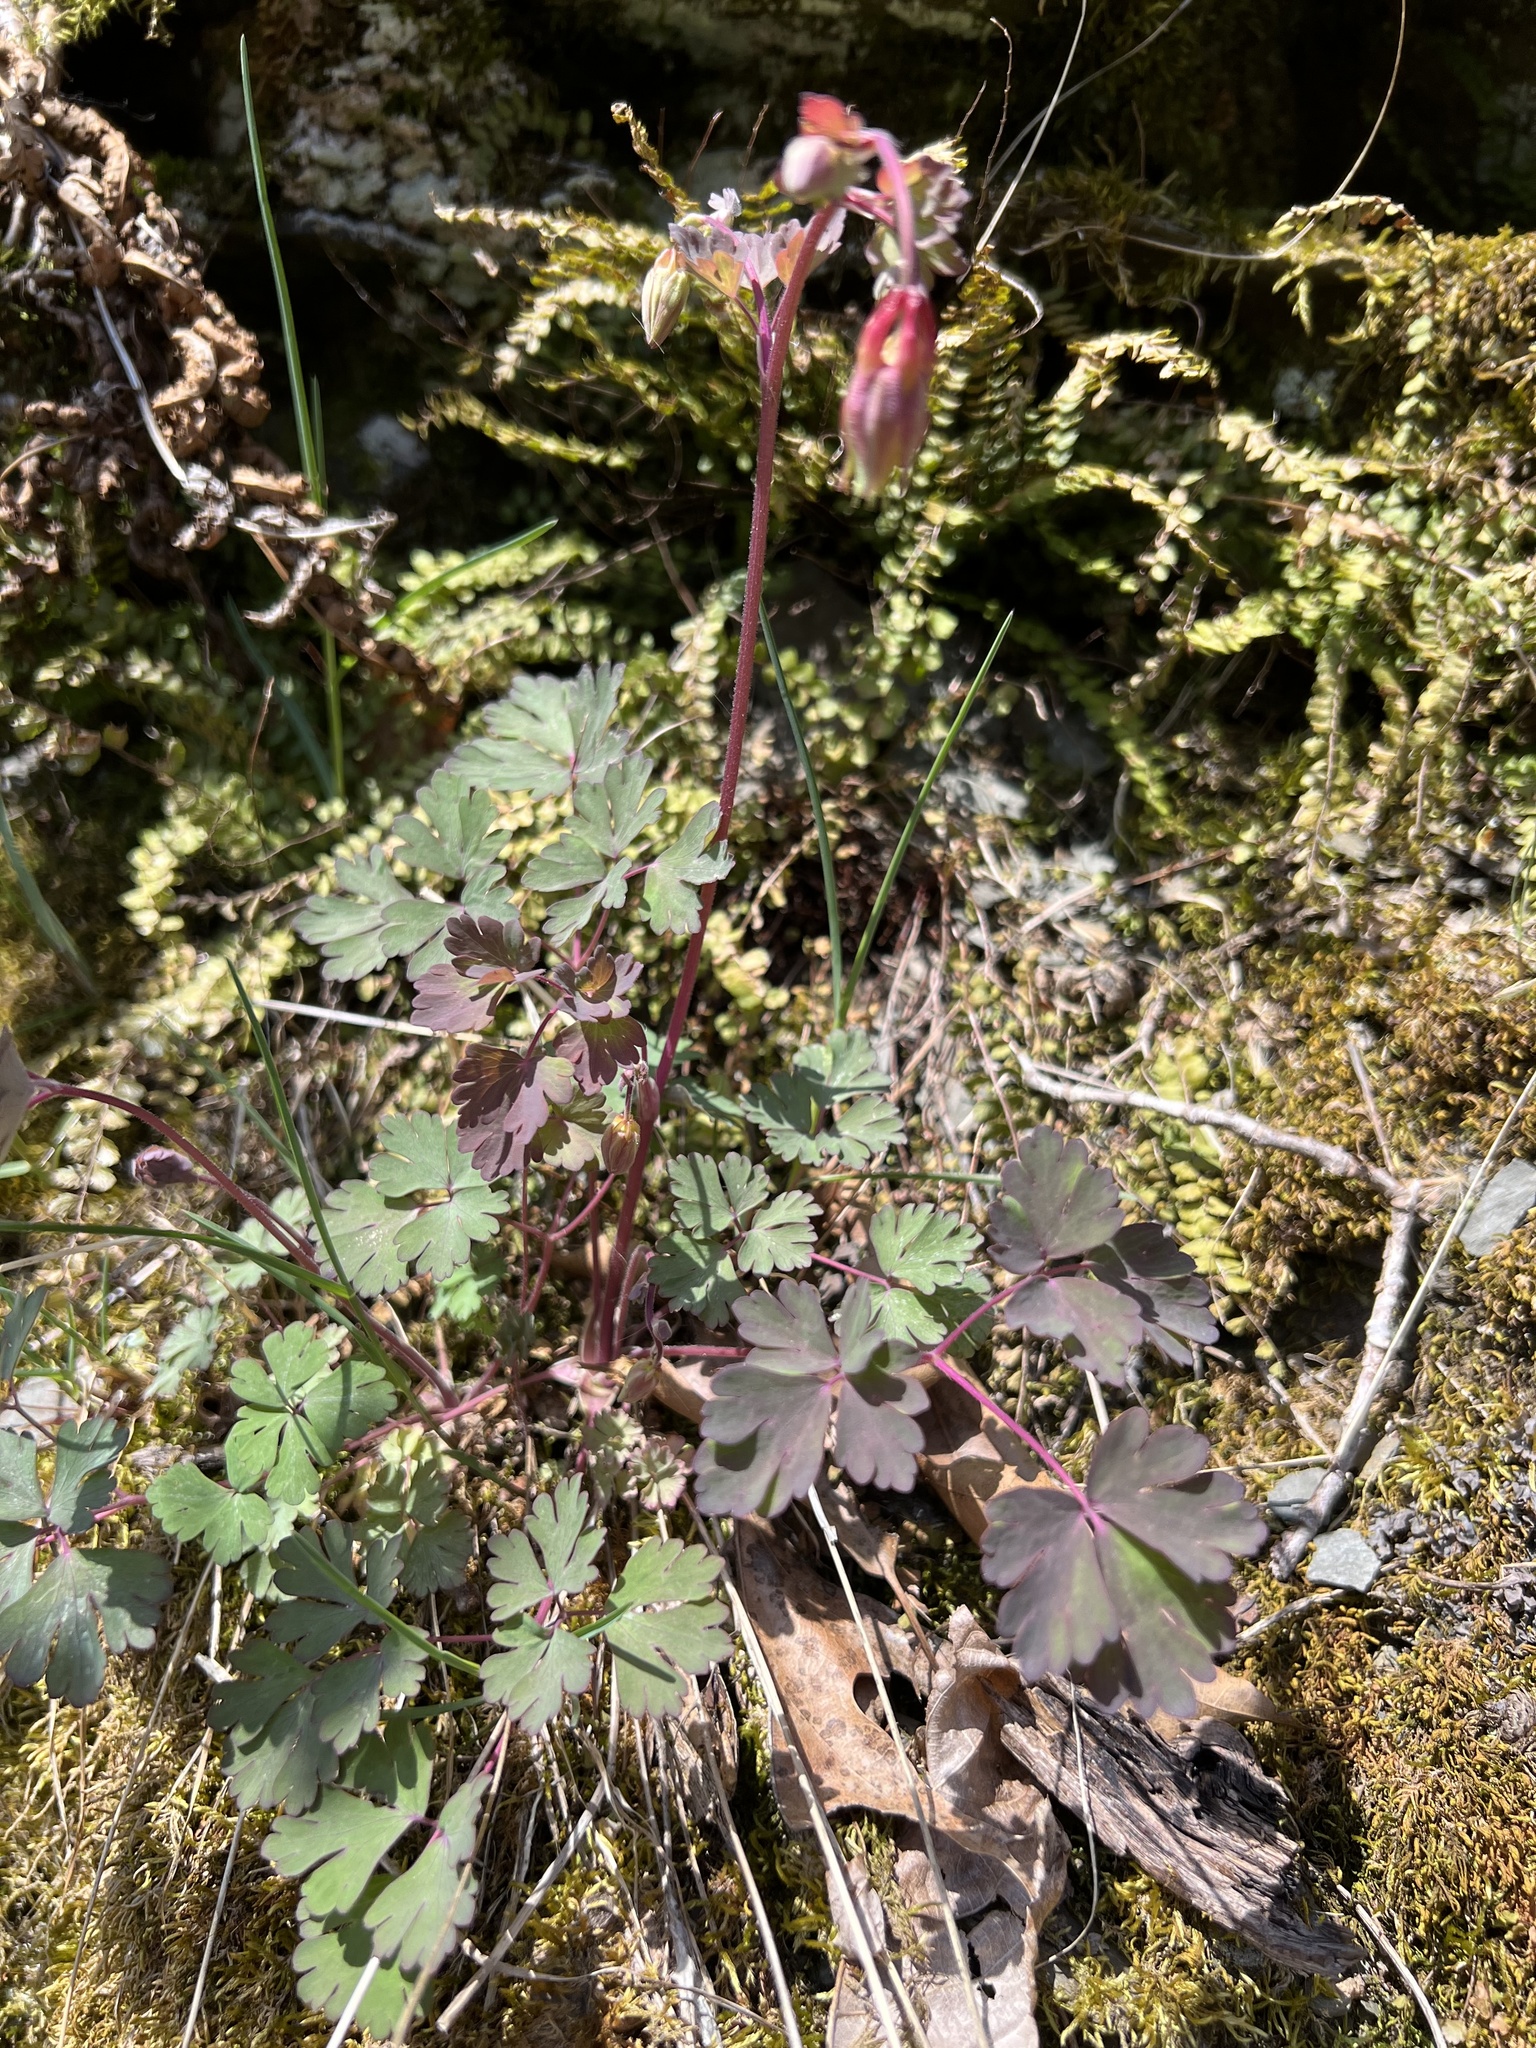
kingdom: Plantae
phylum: Tracheophyta
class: Magnoliopsida
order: Ranunculales
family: Ranunculaceae
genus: Aquilegia
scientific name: Aquilegia canadensis
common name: American columbine
